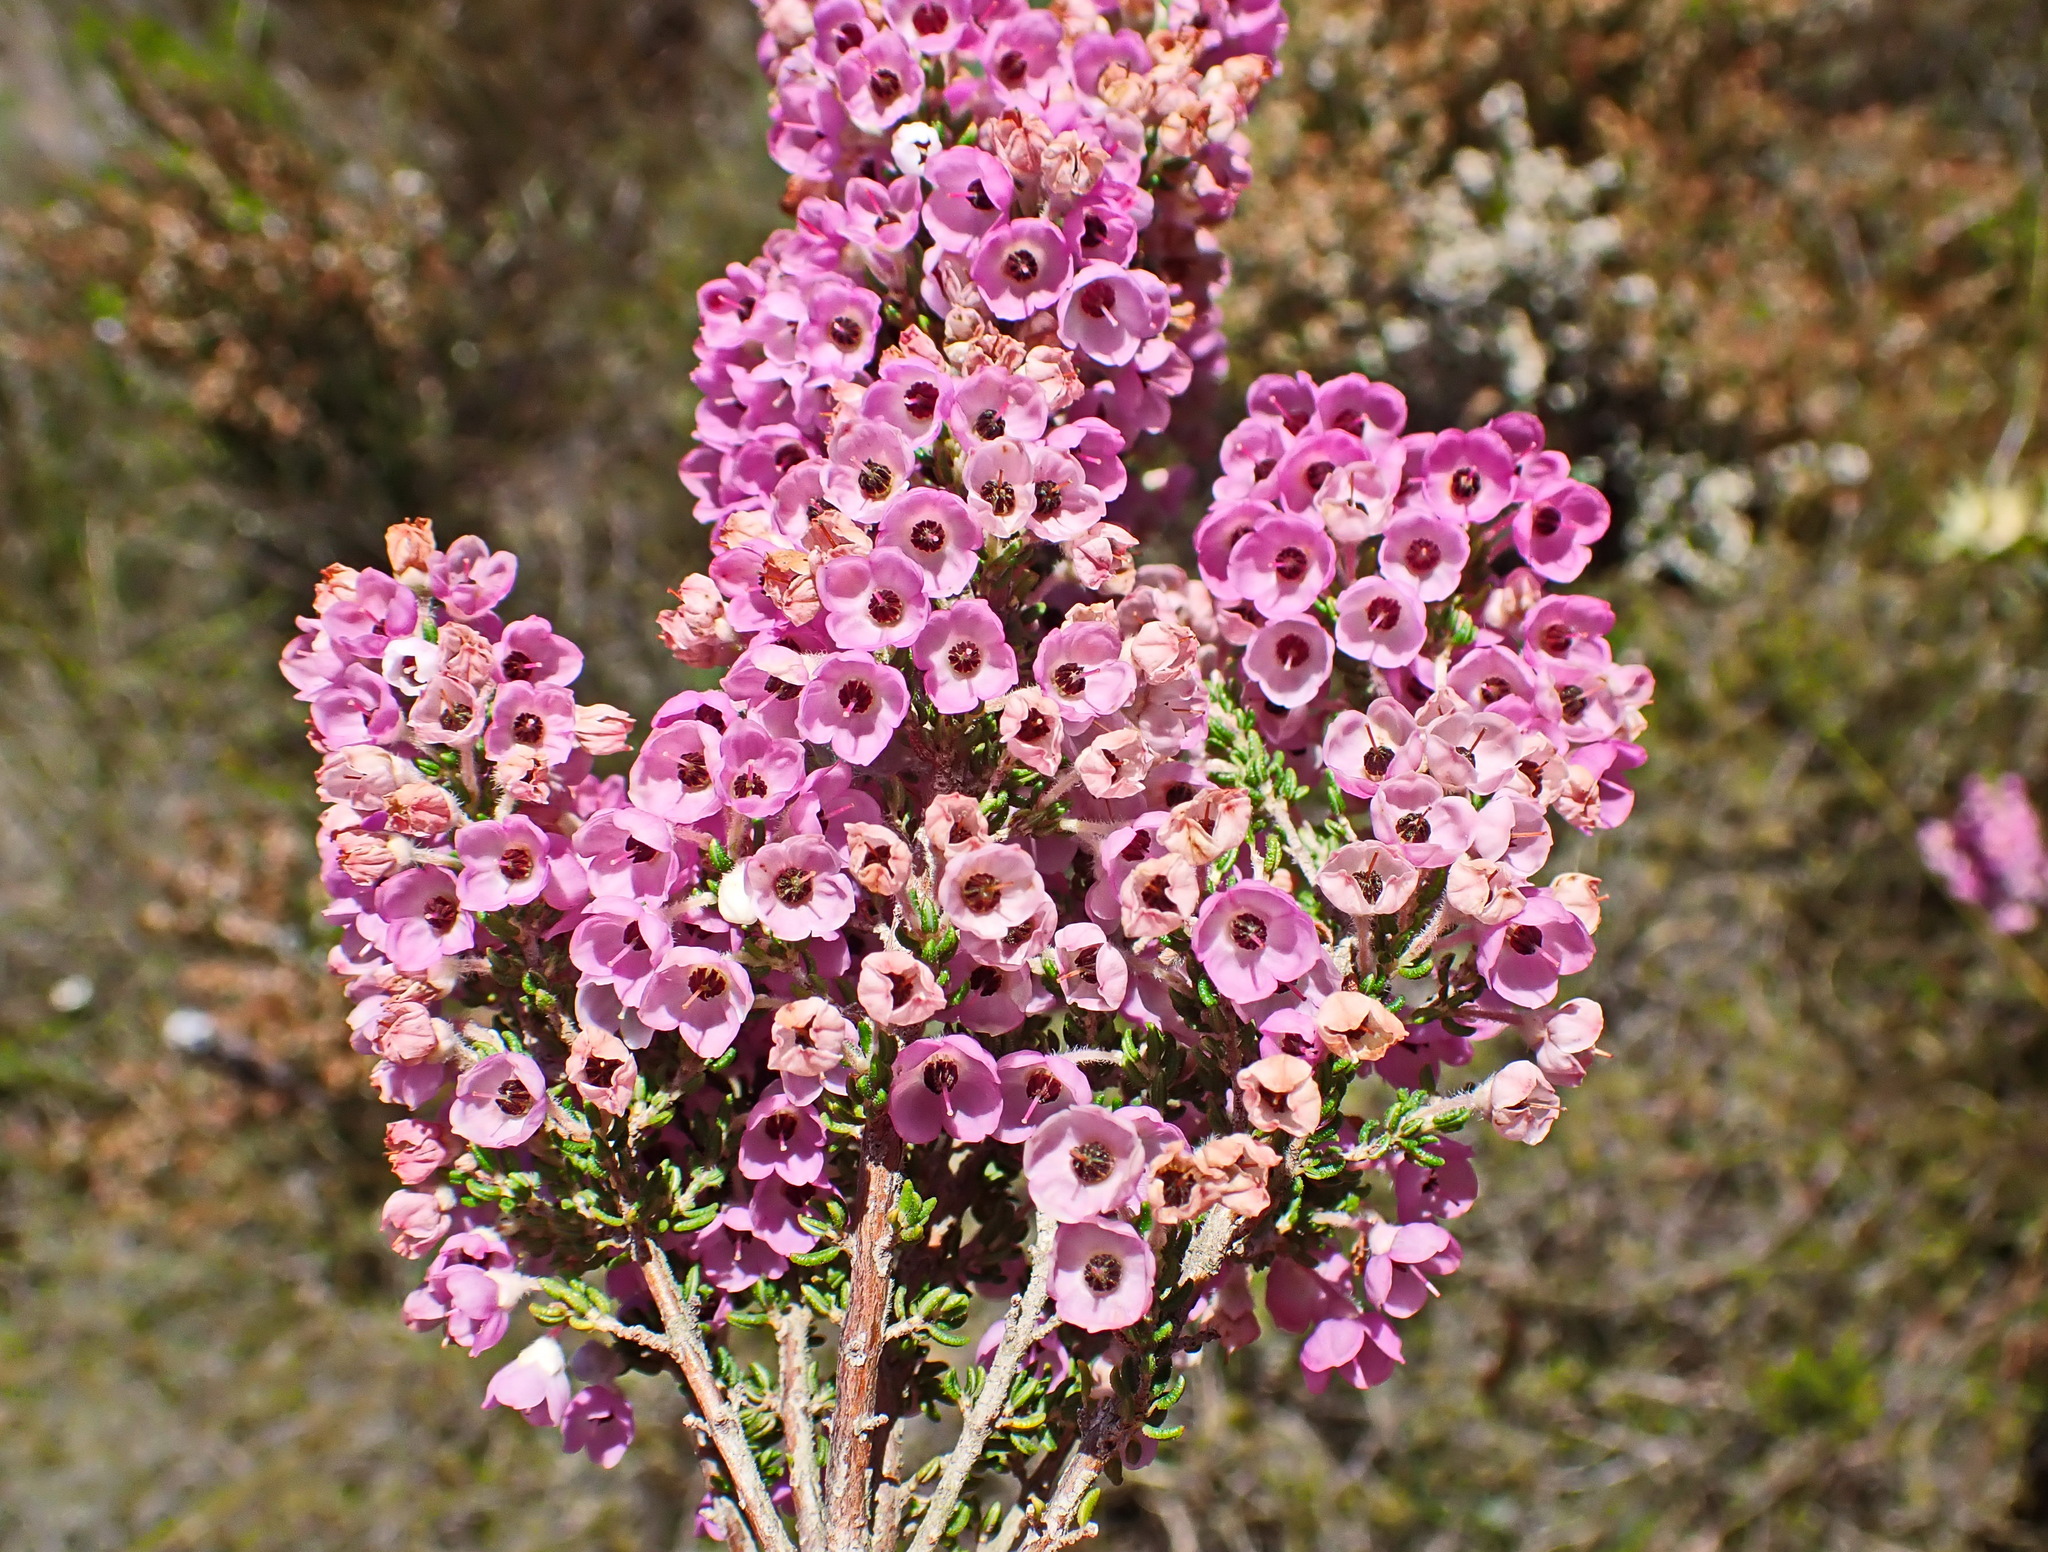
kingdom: Plantae
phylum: Tracheophyta
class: Magnoliopsida
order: Ericales
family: Ericaceae
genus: Erica
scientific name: Erica chamissonis
